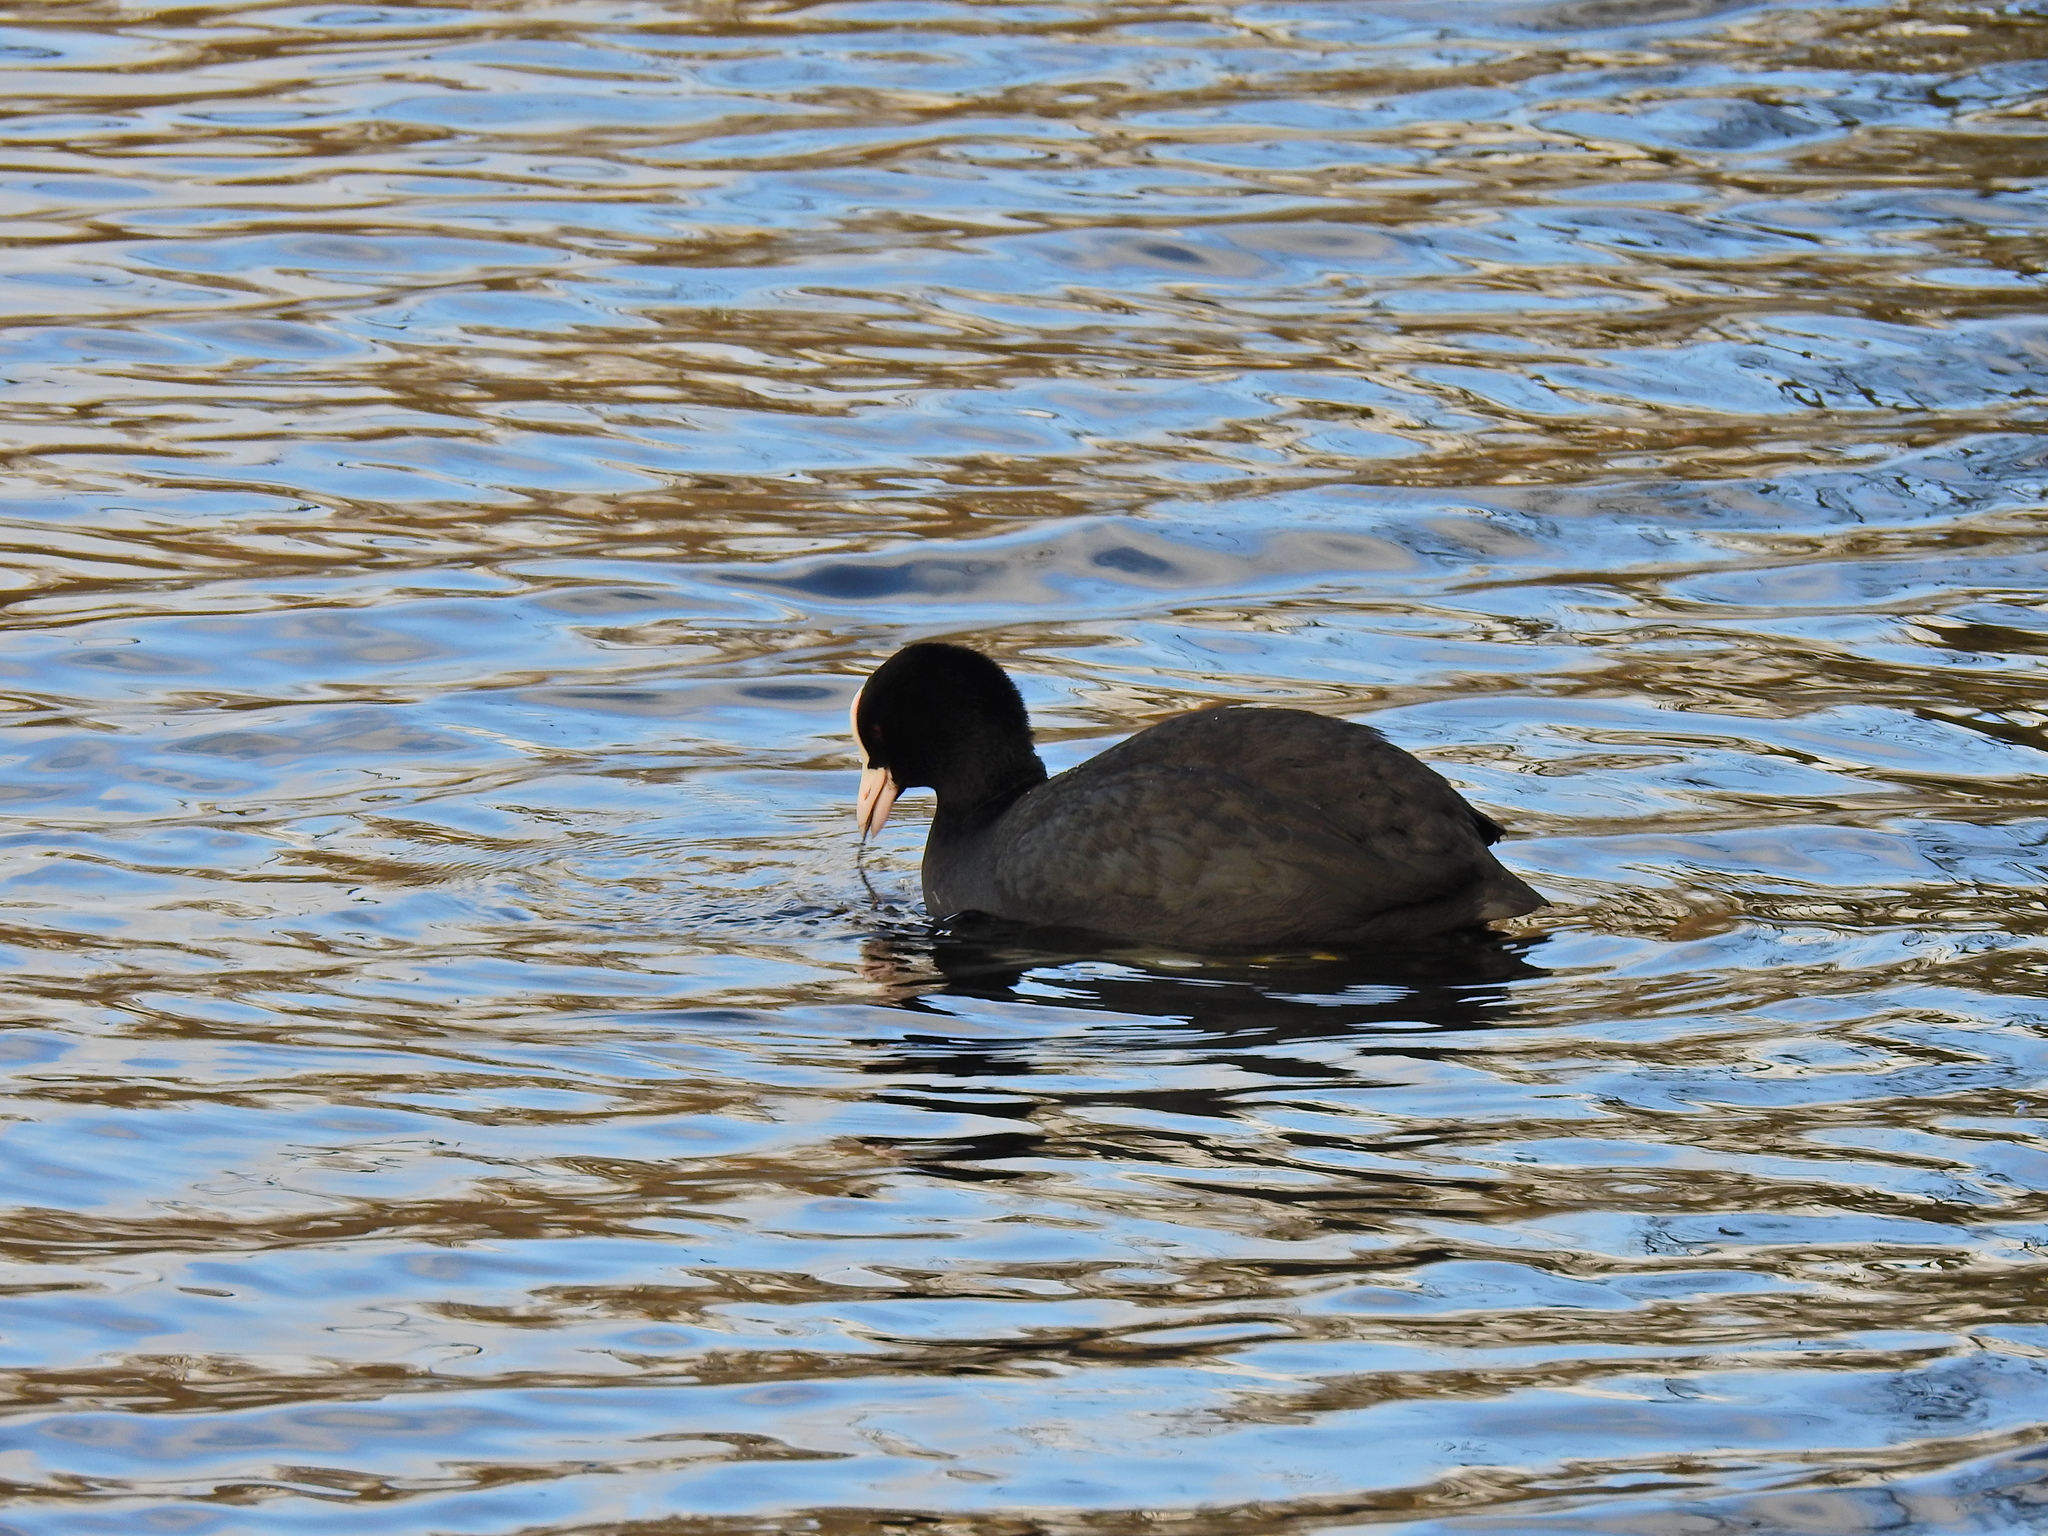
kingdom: Animalia
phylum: Chordata
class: Aves
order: Gruiformes
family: Rallidae
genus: Fulica
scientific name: Fulica atra
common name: Eurasian coot
